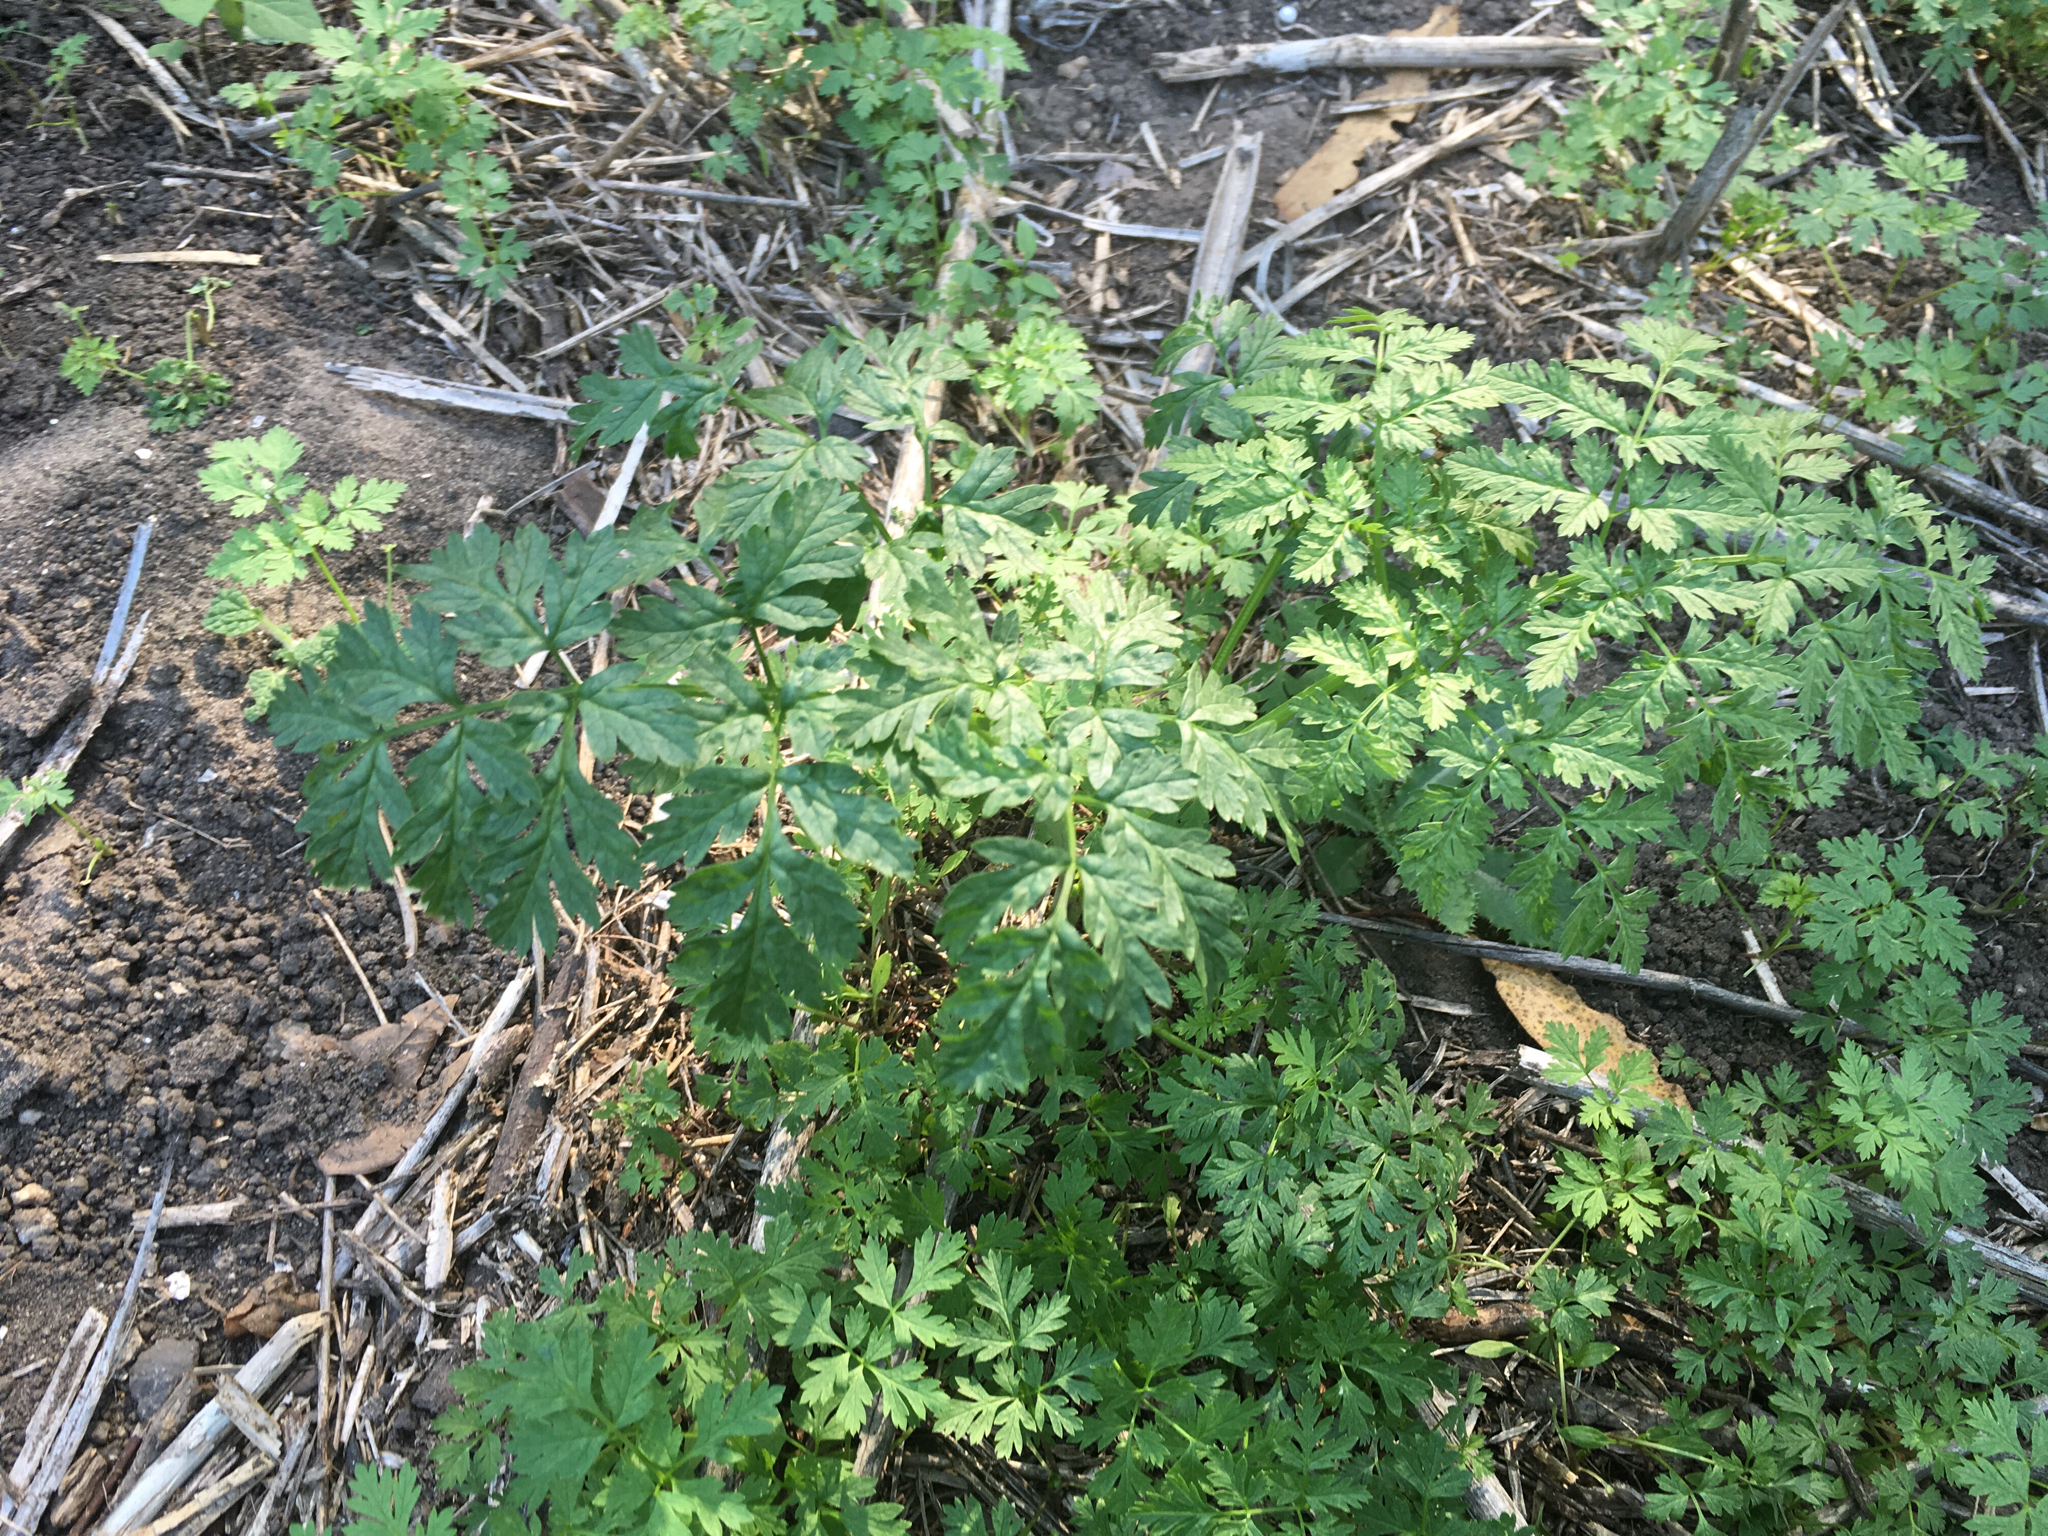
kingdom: Plantae
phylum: Tracheophyta
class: Magnoliopsida
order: Apiales
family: Apiaceae
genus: Conium
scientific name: Conium maculatum
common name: Hemlock
